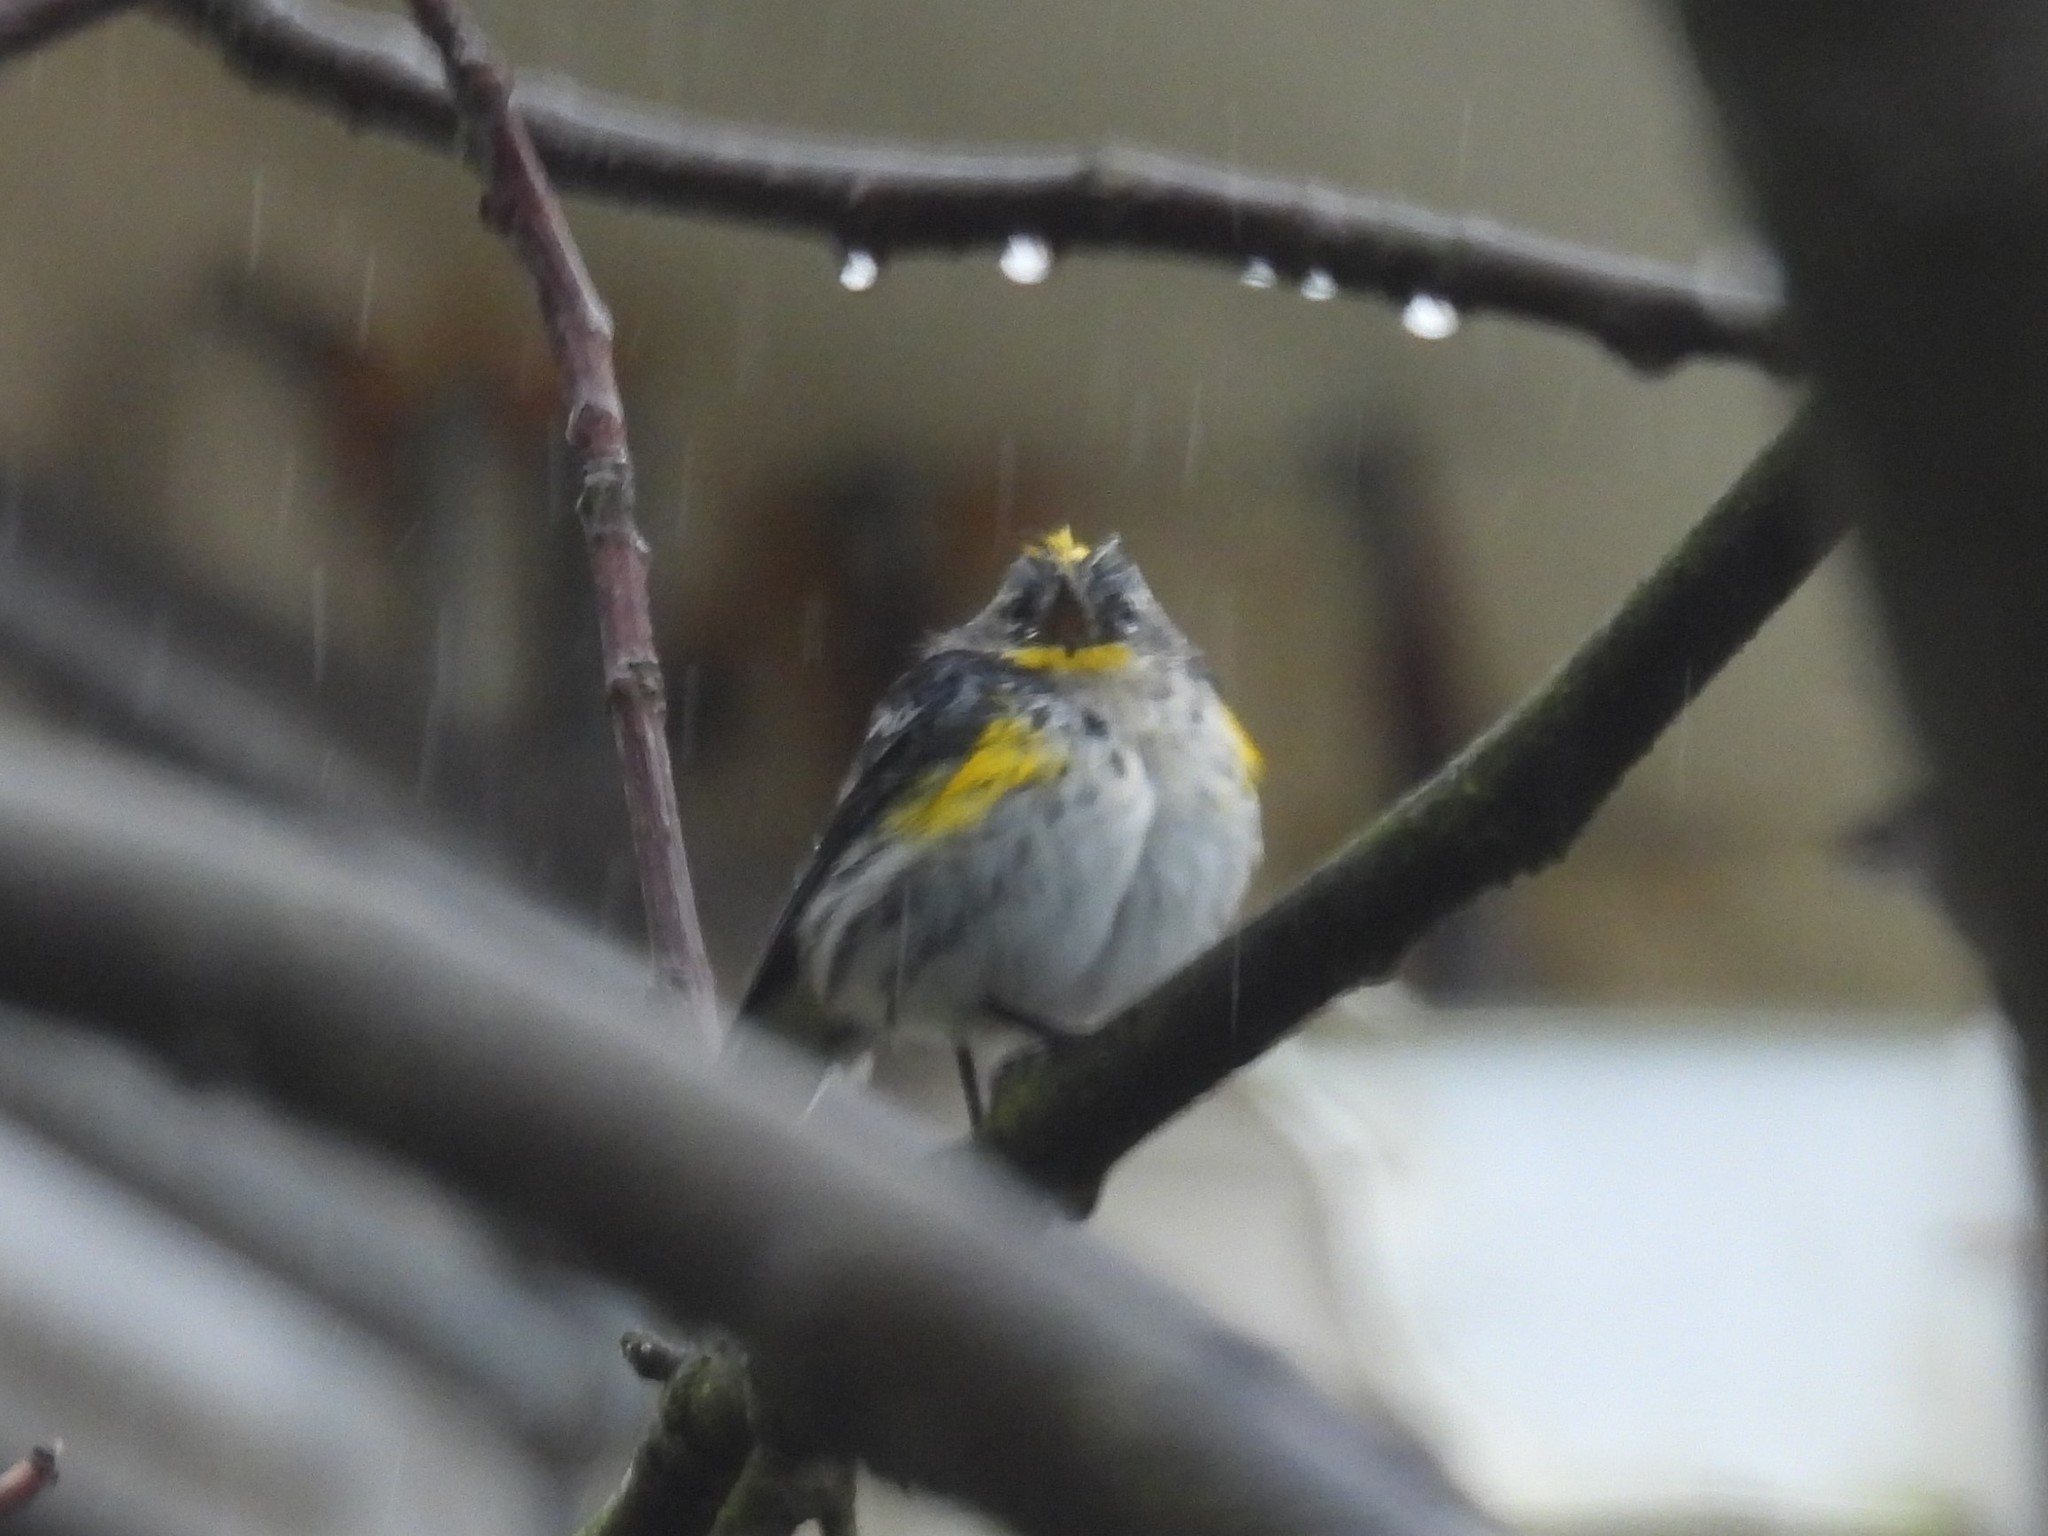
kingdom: Animalia
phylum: Chordata
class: Aves
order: Passeriformes
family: Parulidae
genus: Setophaga
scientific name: Setophaga coronata
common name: Myrtle warbler
